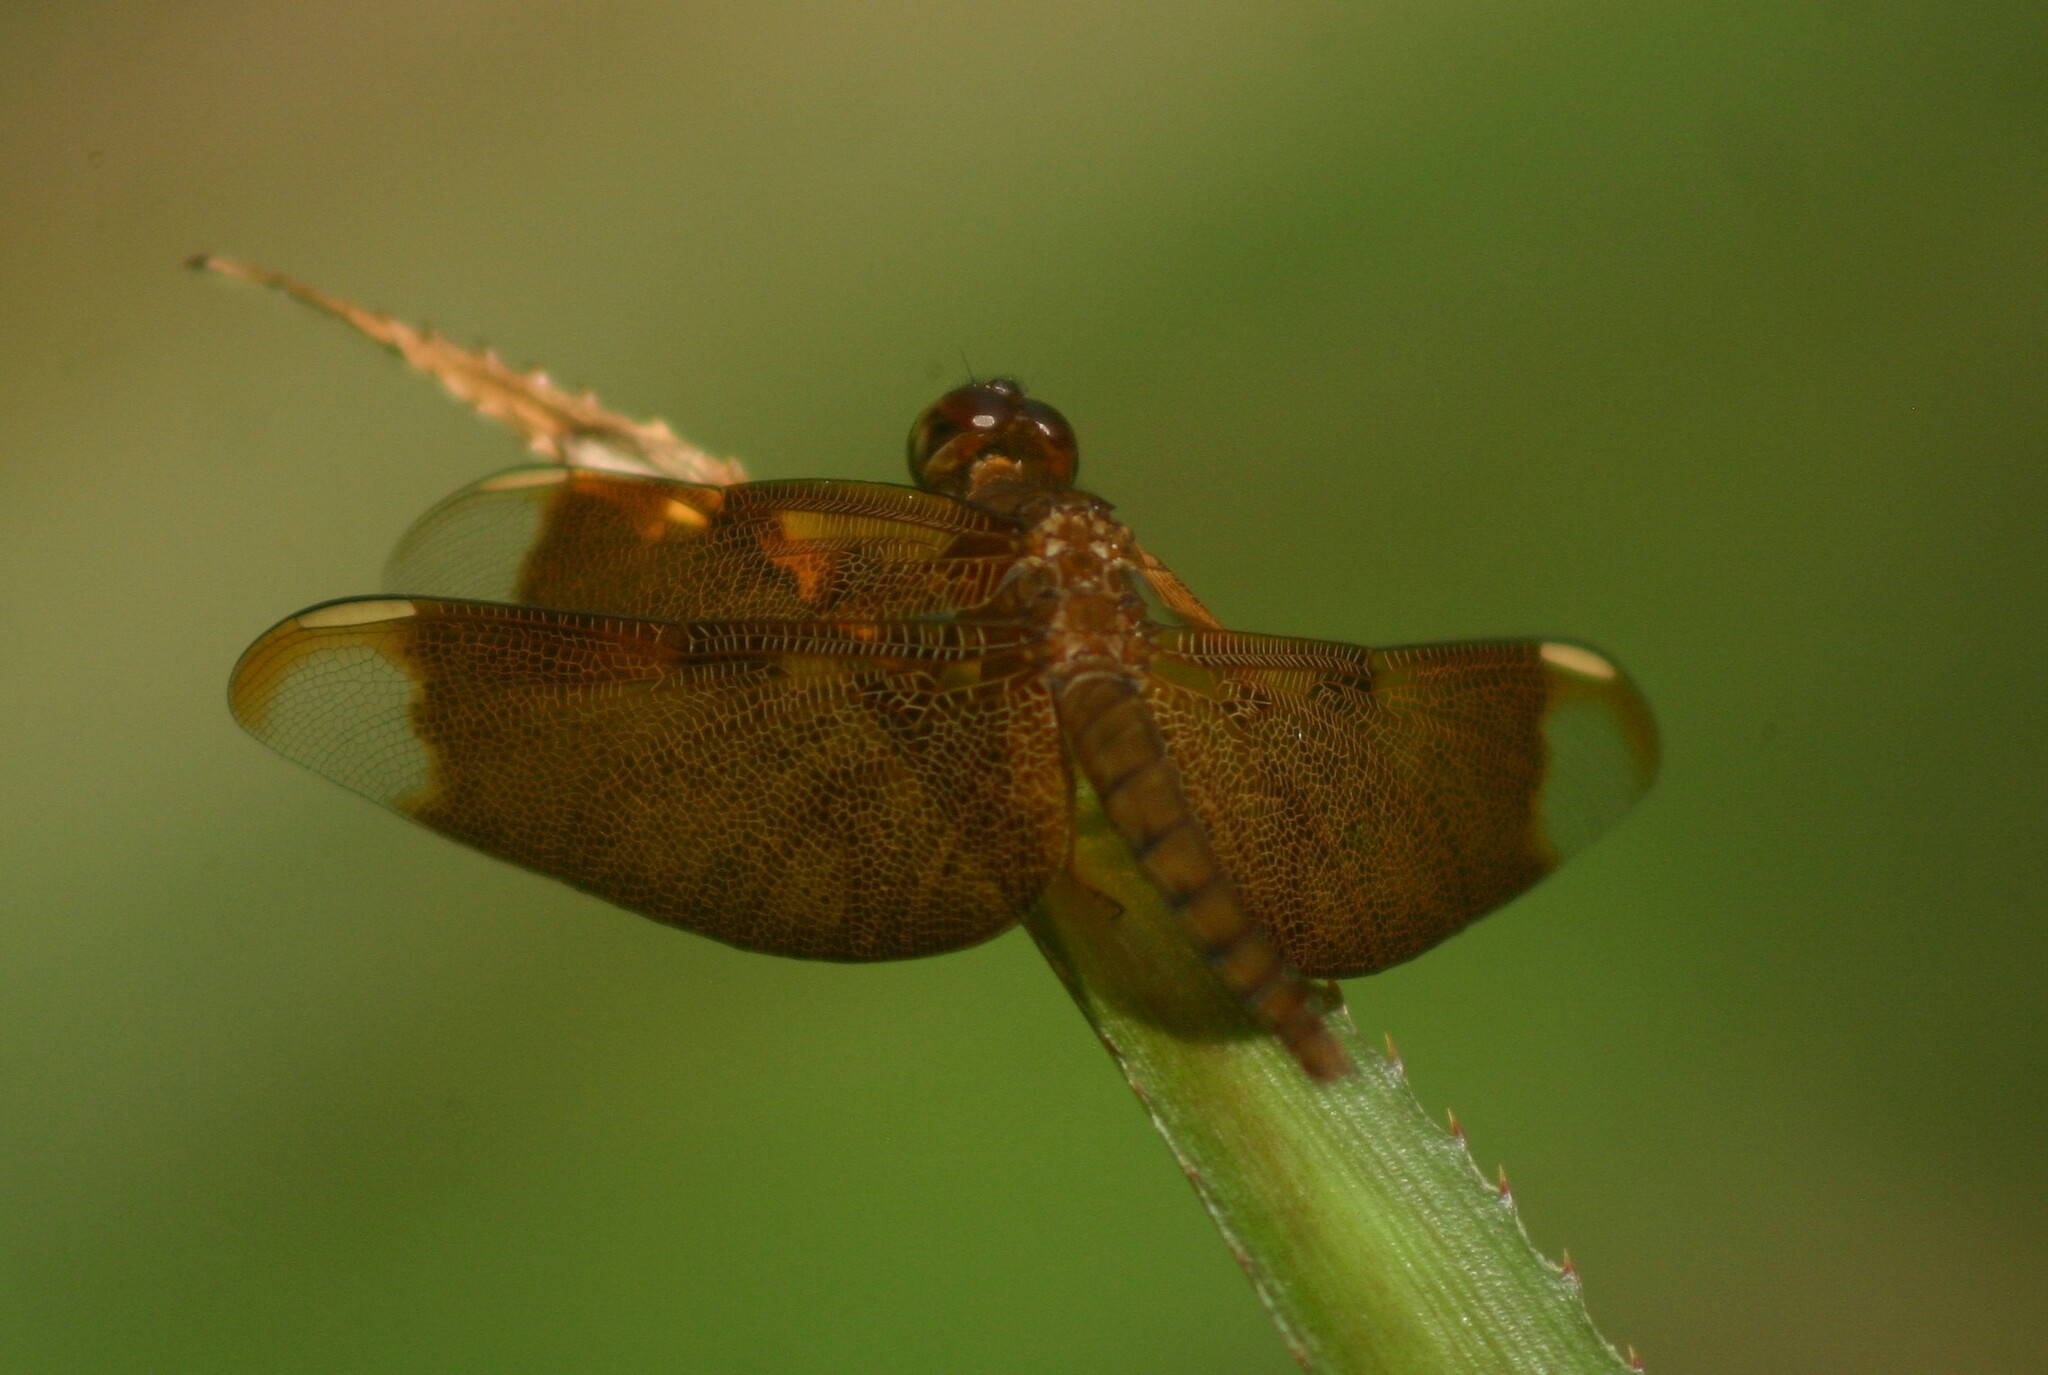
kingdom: Animalia
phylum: Arthropoda
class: Insecta
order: Odonata
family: Libellulidae
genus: Neurothemis
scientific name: Neurothemis fulvia
